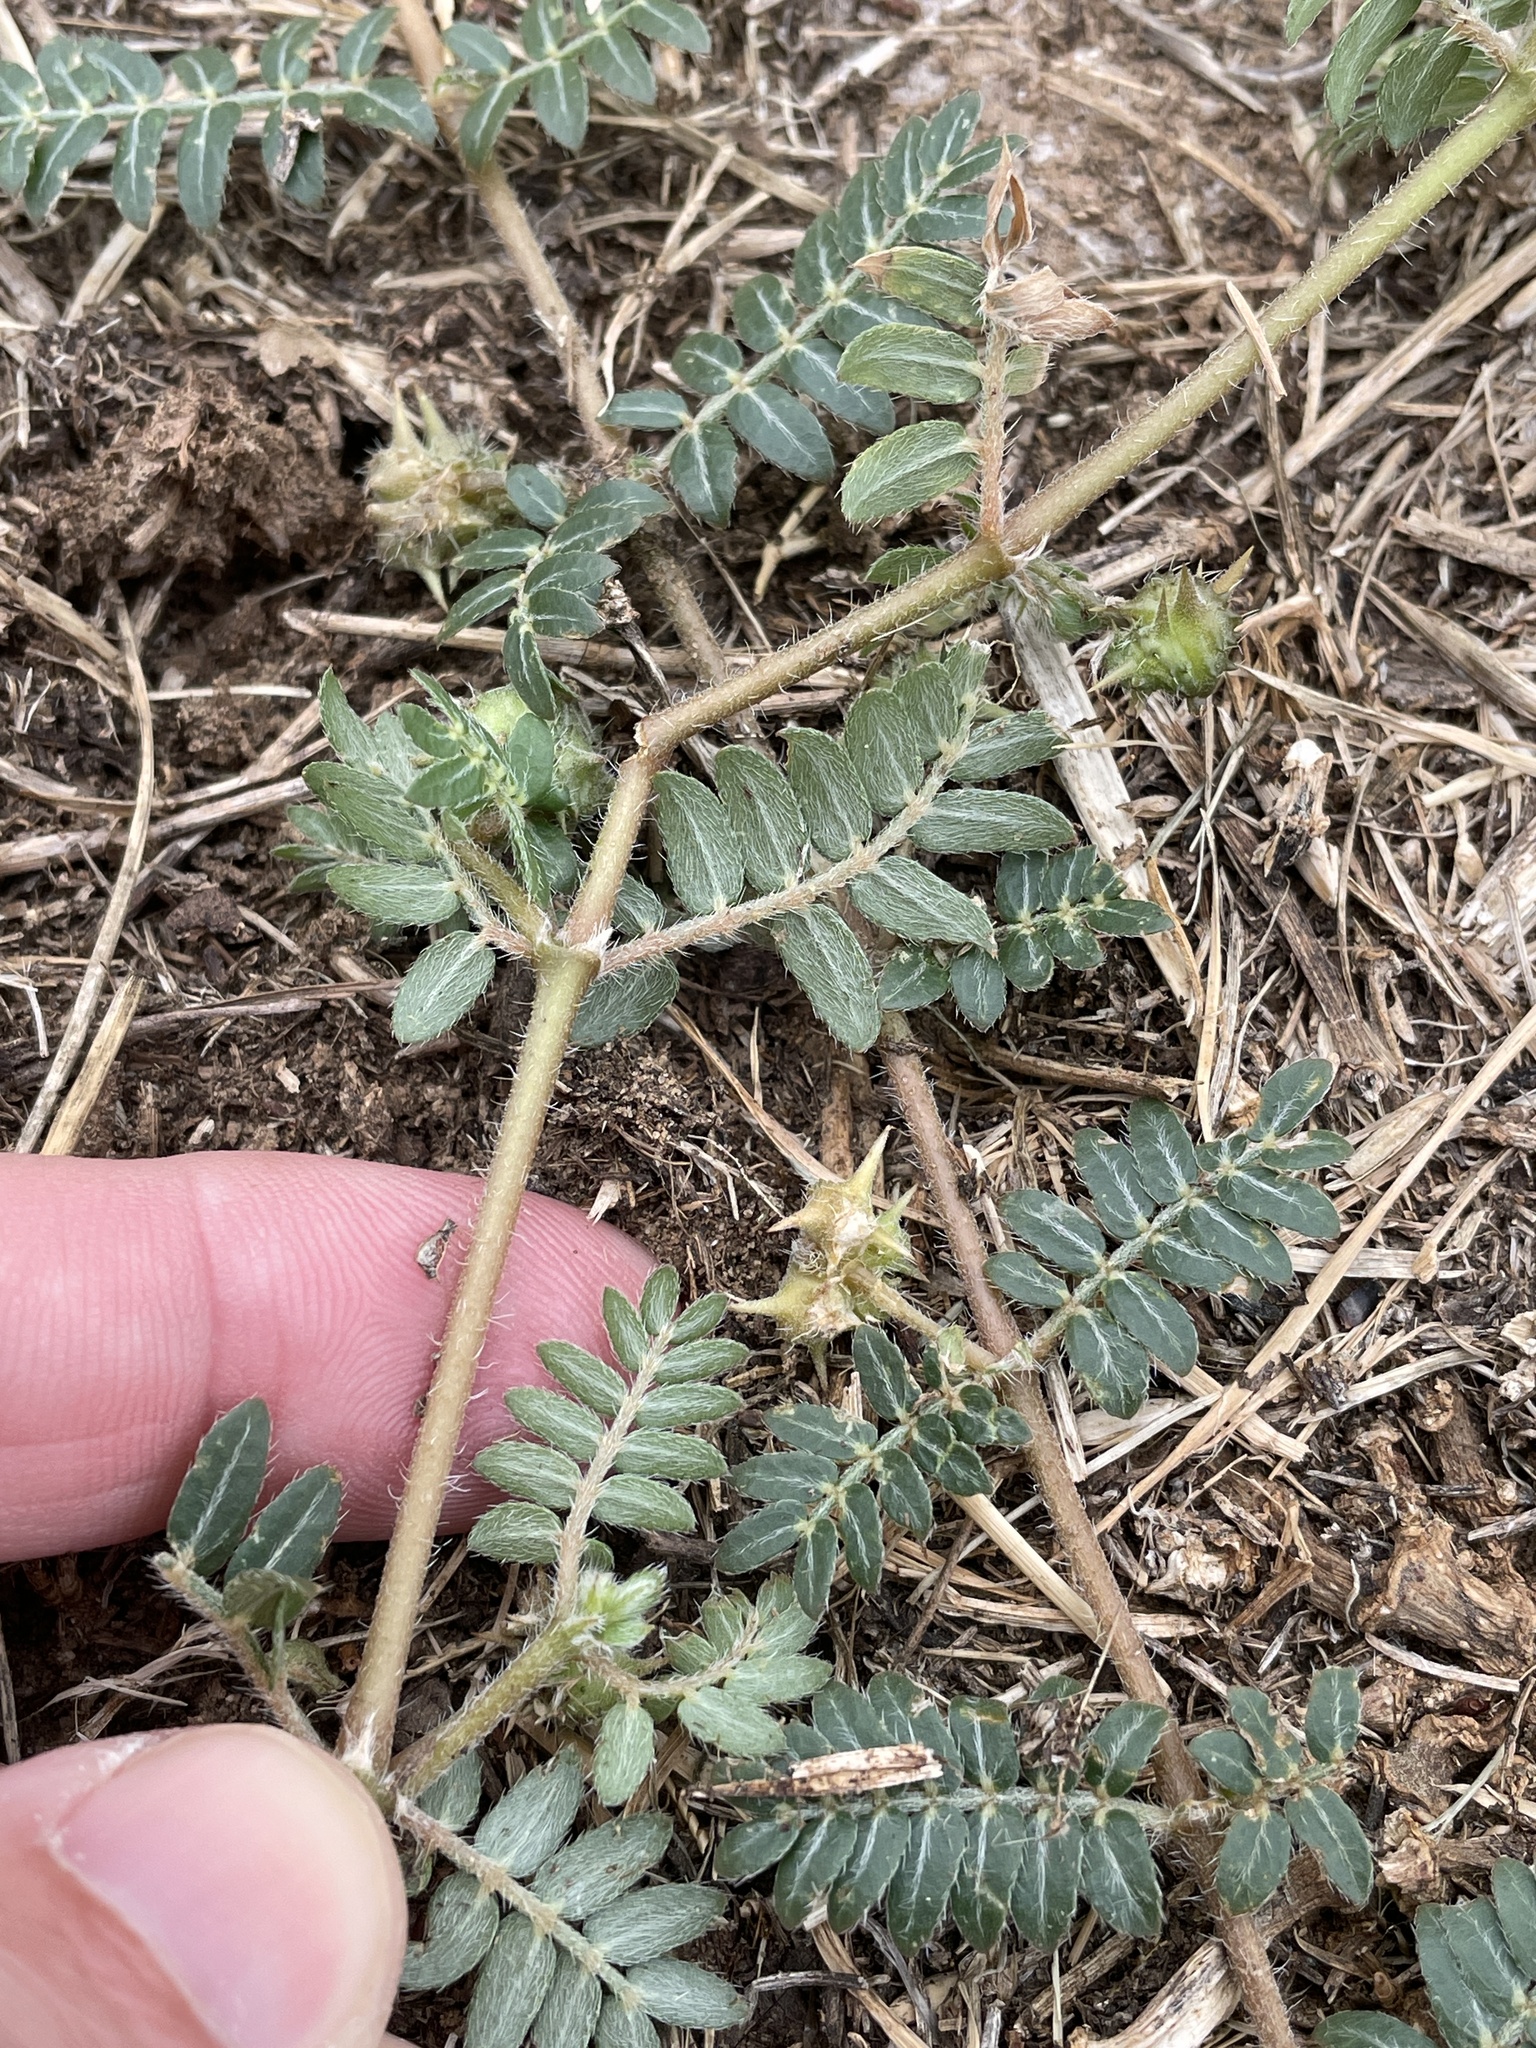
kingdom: Plantae
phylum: Tracheophyta
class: Magnoliopsida
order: Zygophyllales
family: Zygophyllaceae
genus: Tribulus
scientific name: Tribulus terrestris
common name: Puncturevine
